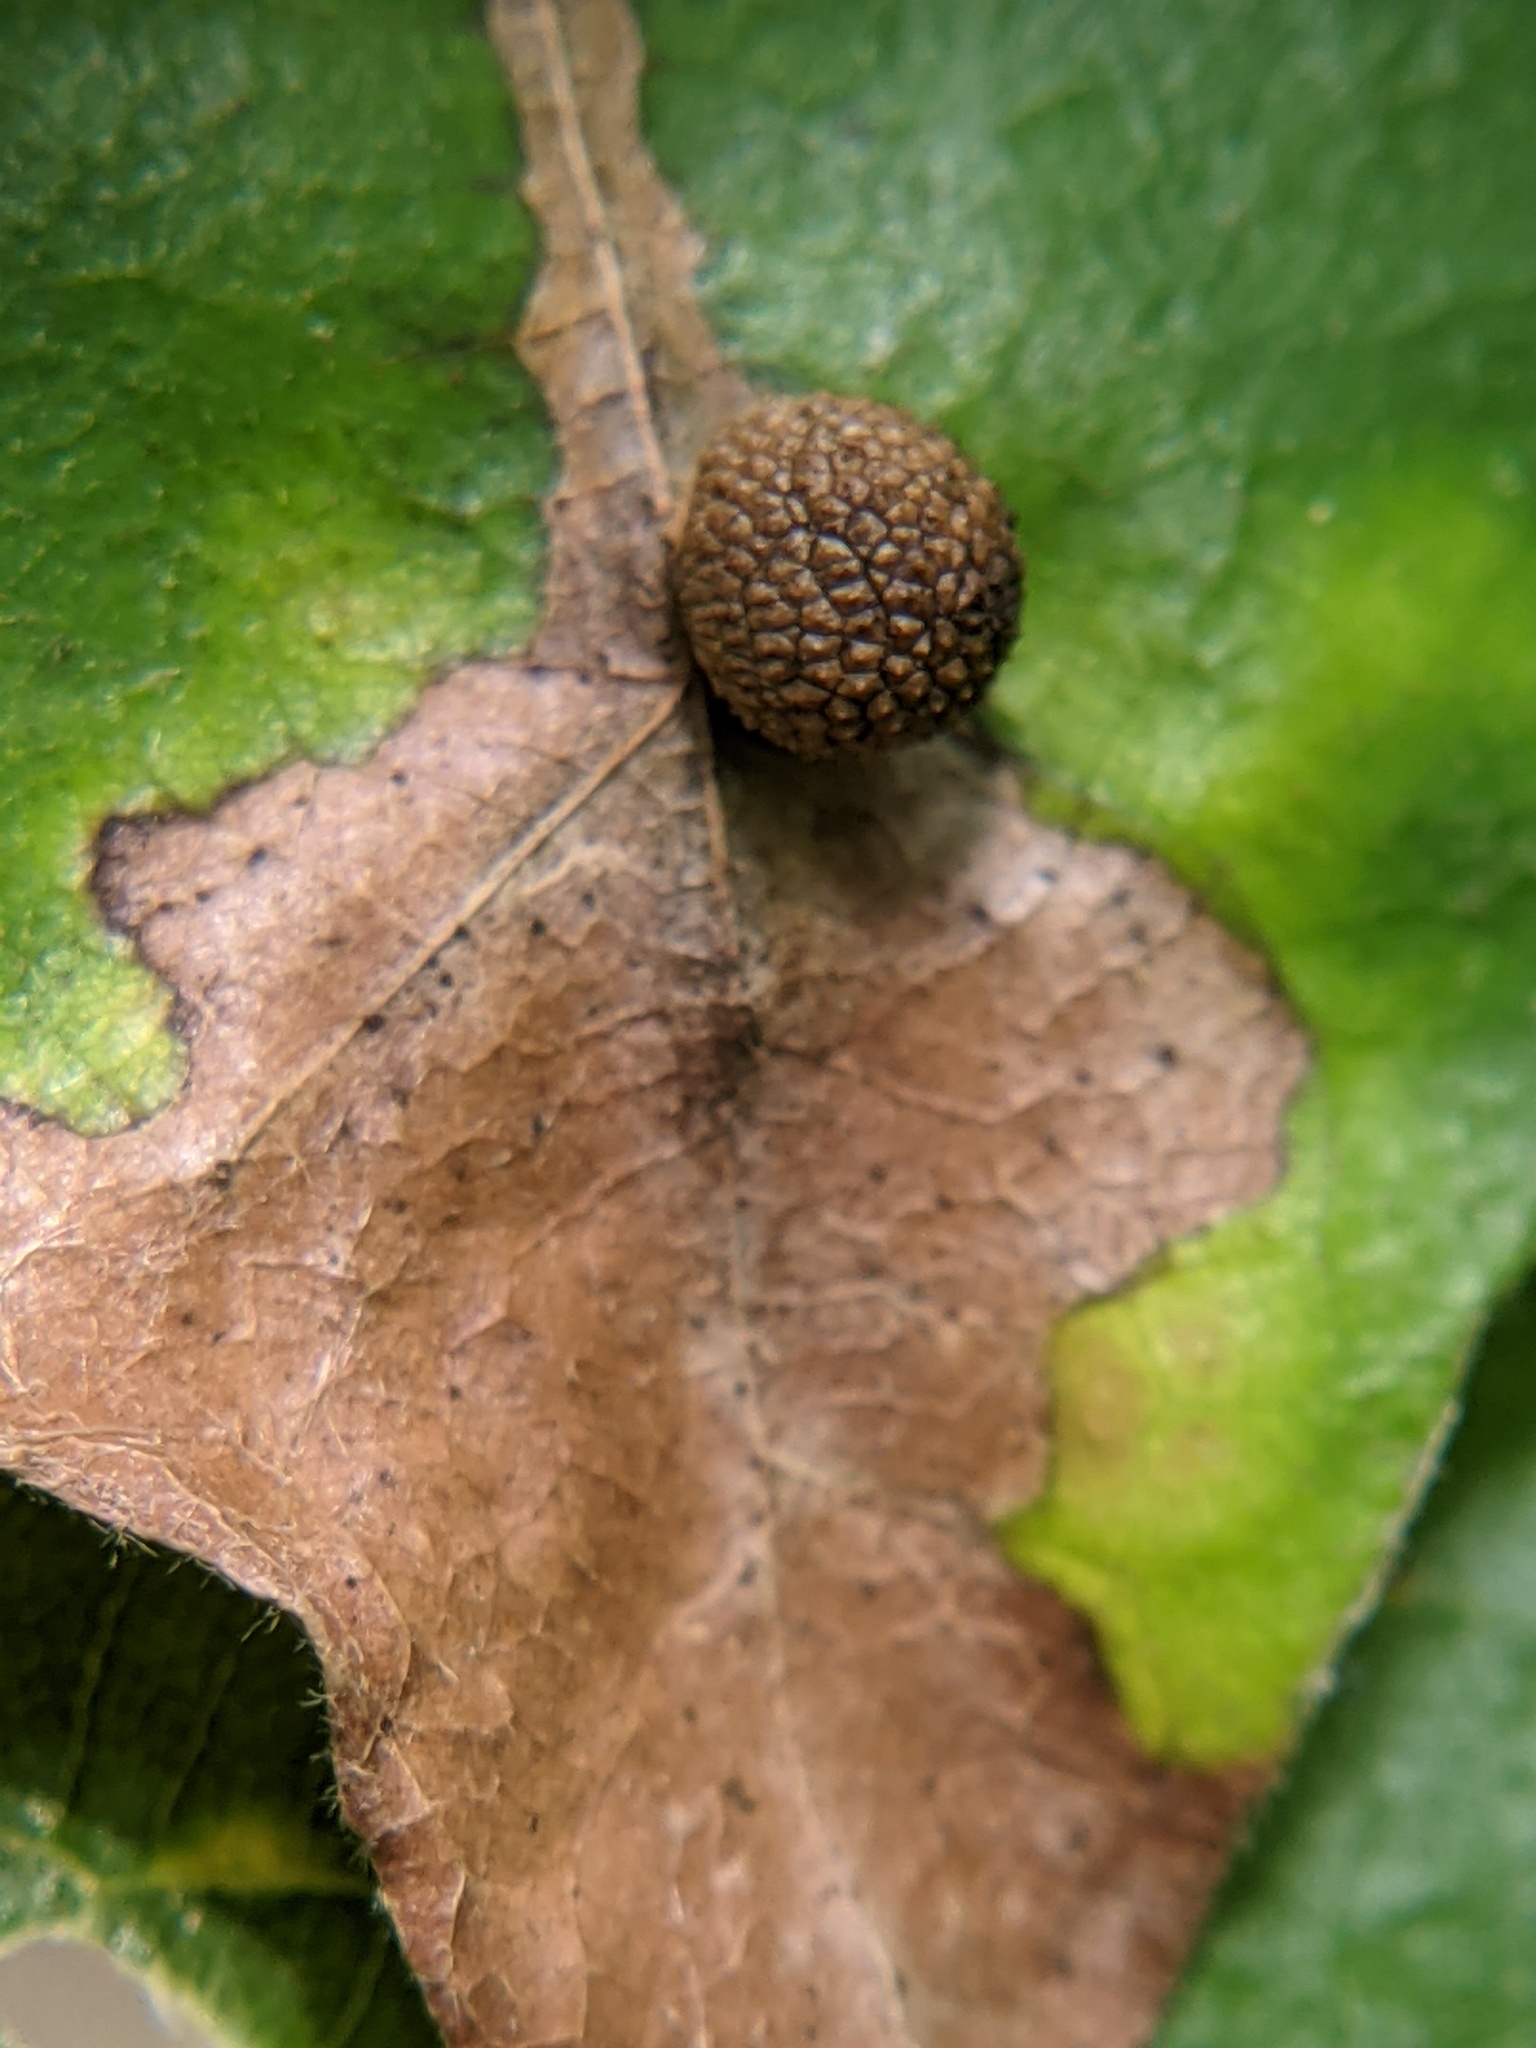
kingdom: Animalia
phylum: Arthropoda
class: Insecta
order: Hymenoptera
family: Cynipidae
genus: Acraspis
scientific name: Acraspis quercushirta
